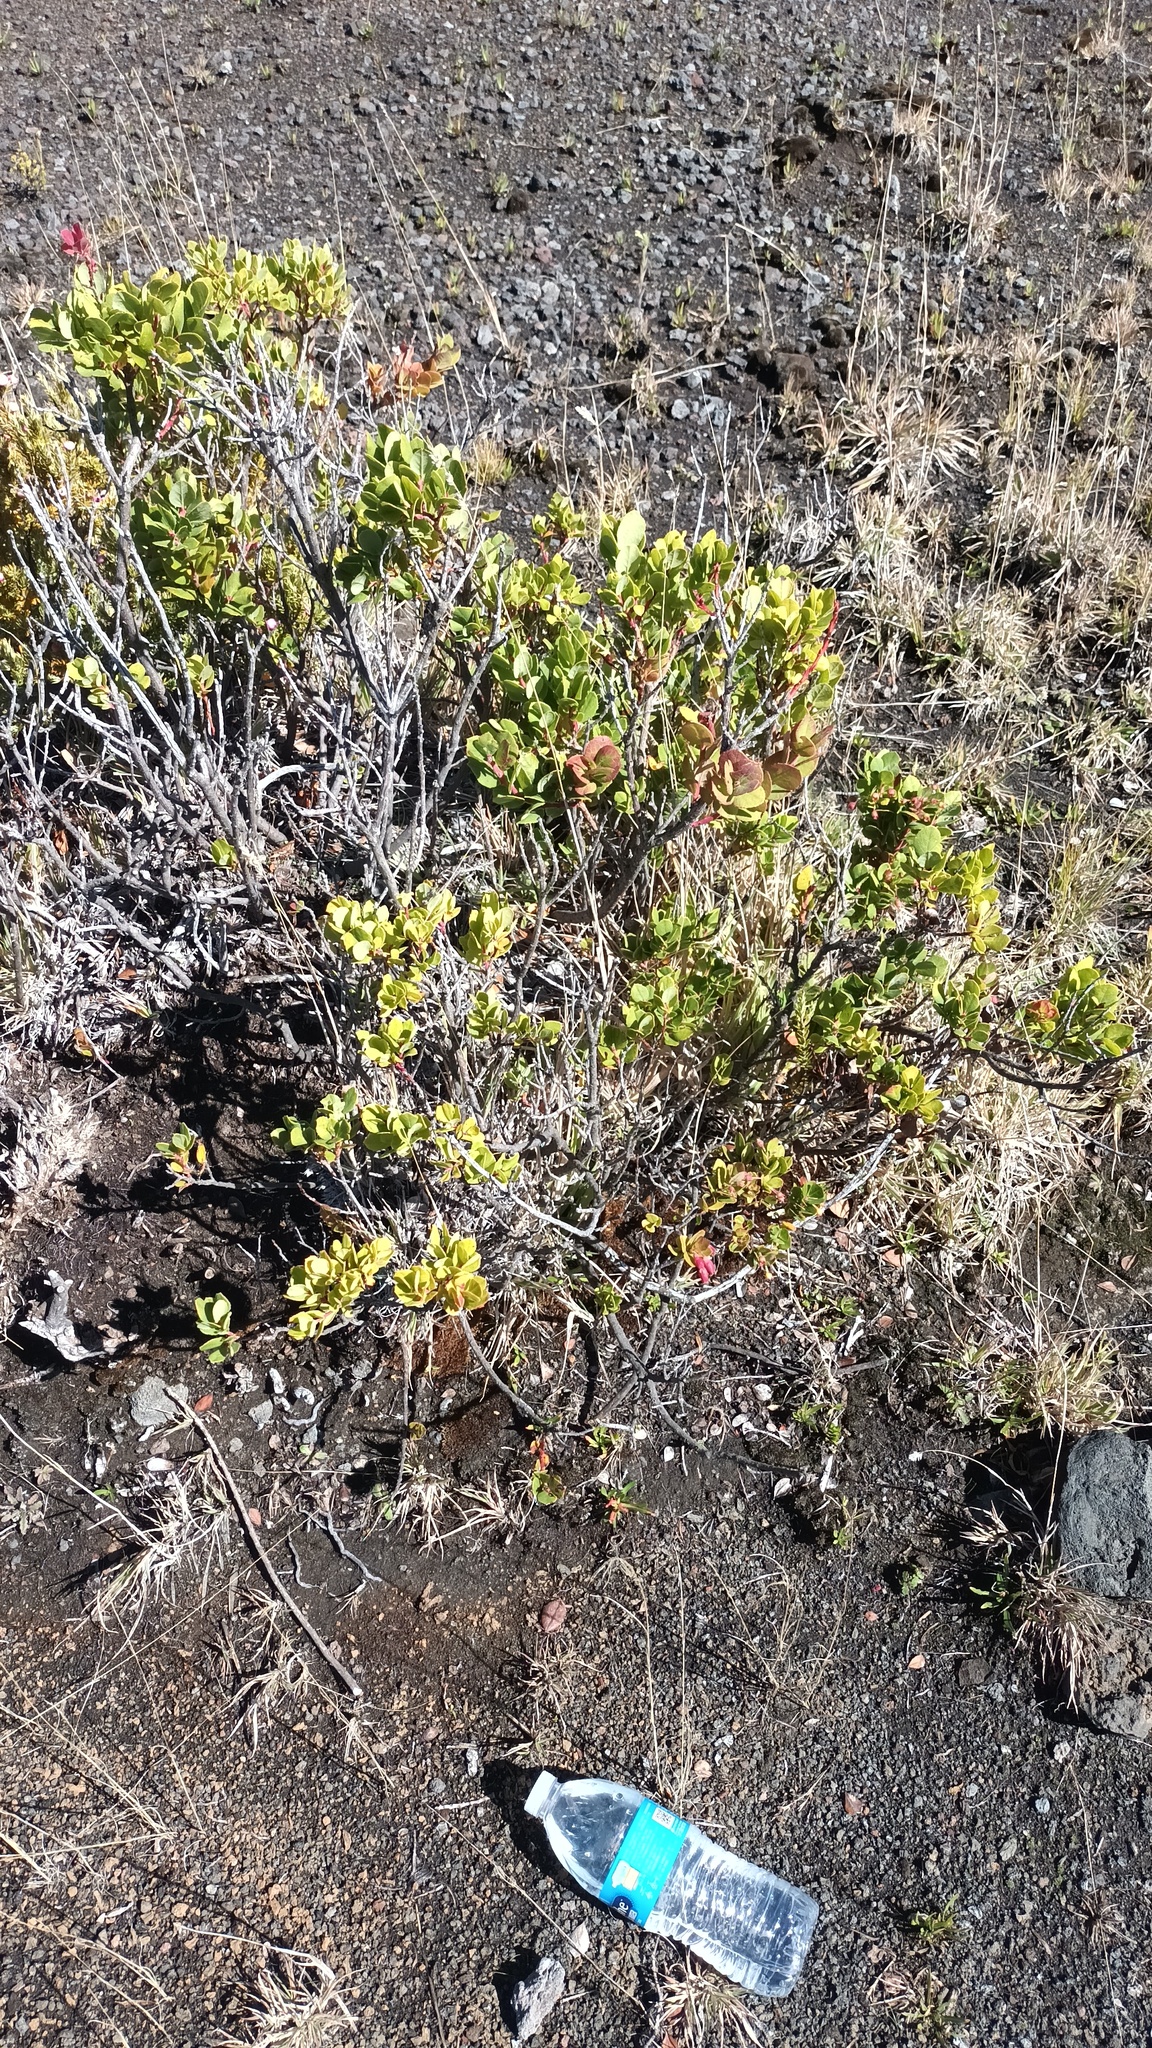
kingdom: Plantae
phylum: Tracheophyta
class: Magnoliopsida
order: Ericales
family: Ericaceae
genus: Vaccinium
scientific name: Vaccinium reticulatum
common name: Ohelo
